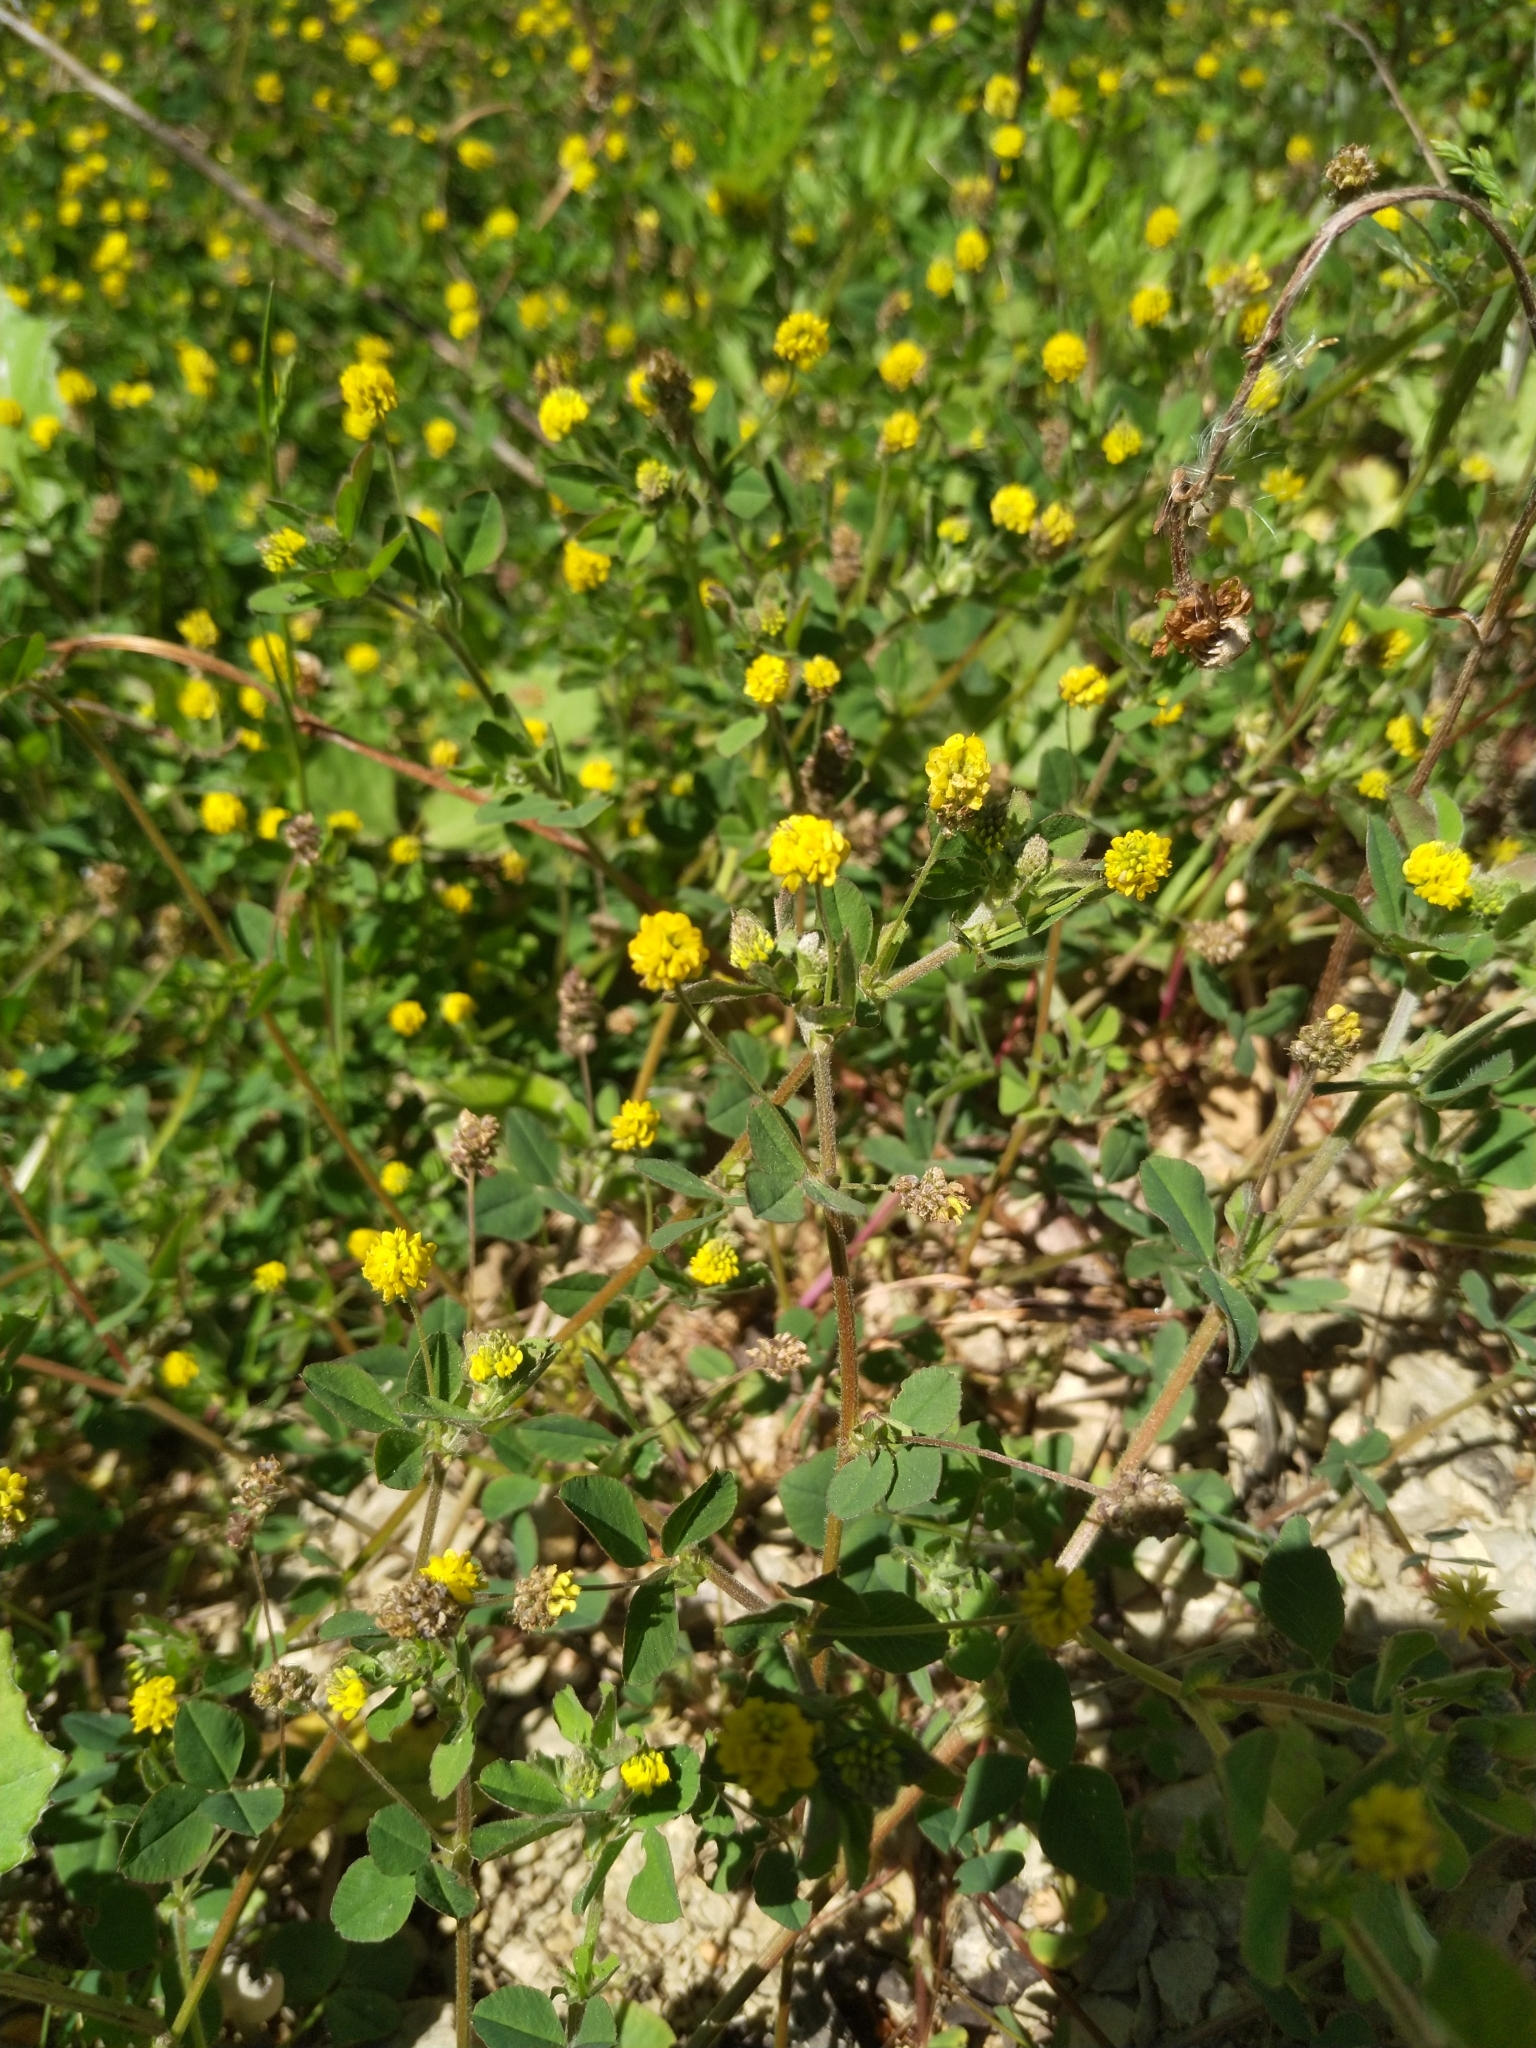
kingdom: Plantae
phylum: Tracheophyta
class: Magnoliopsida
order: Fabales
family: Fabaceae
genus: Medicago
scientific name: Medicago lupulina
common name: Black medick
